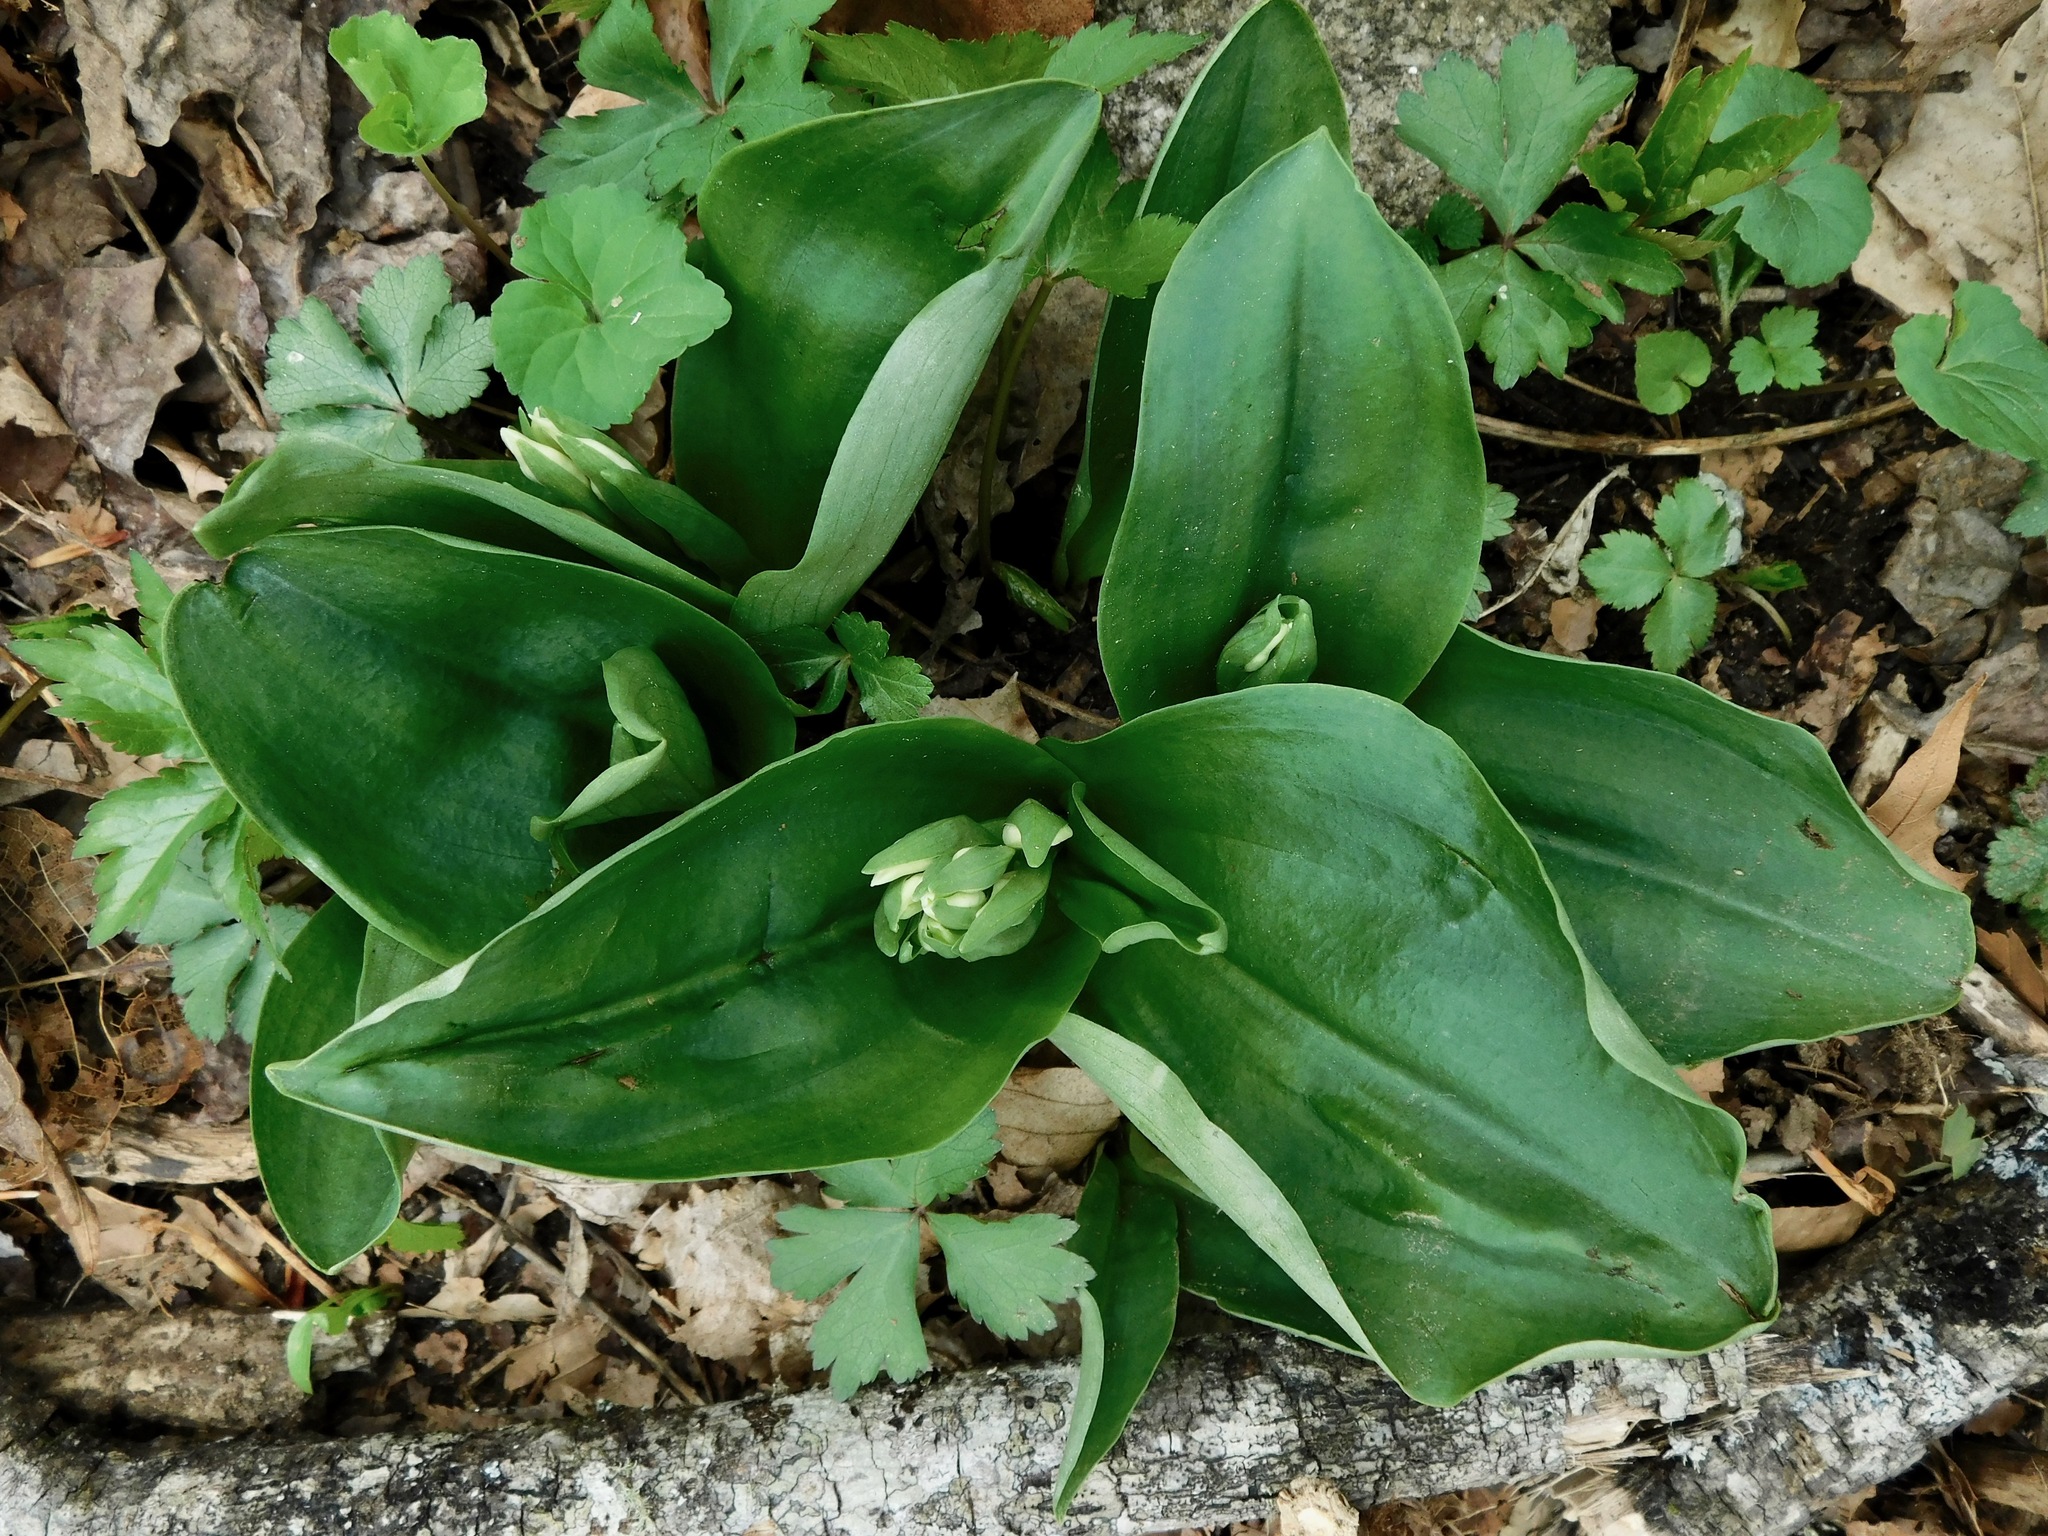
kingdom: Plantae
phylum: Tracheophyta
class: Liliopsida
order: Asparagales
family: Orchidaceae
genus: Galearis
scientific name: Galearis spectabilis
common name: Purple-hooded orchis
